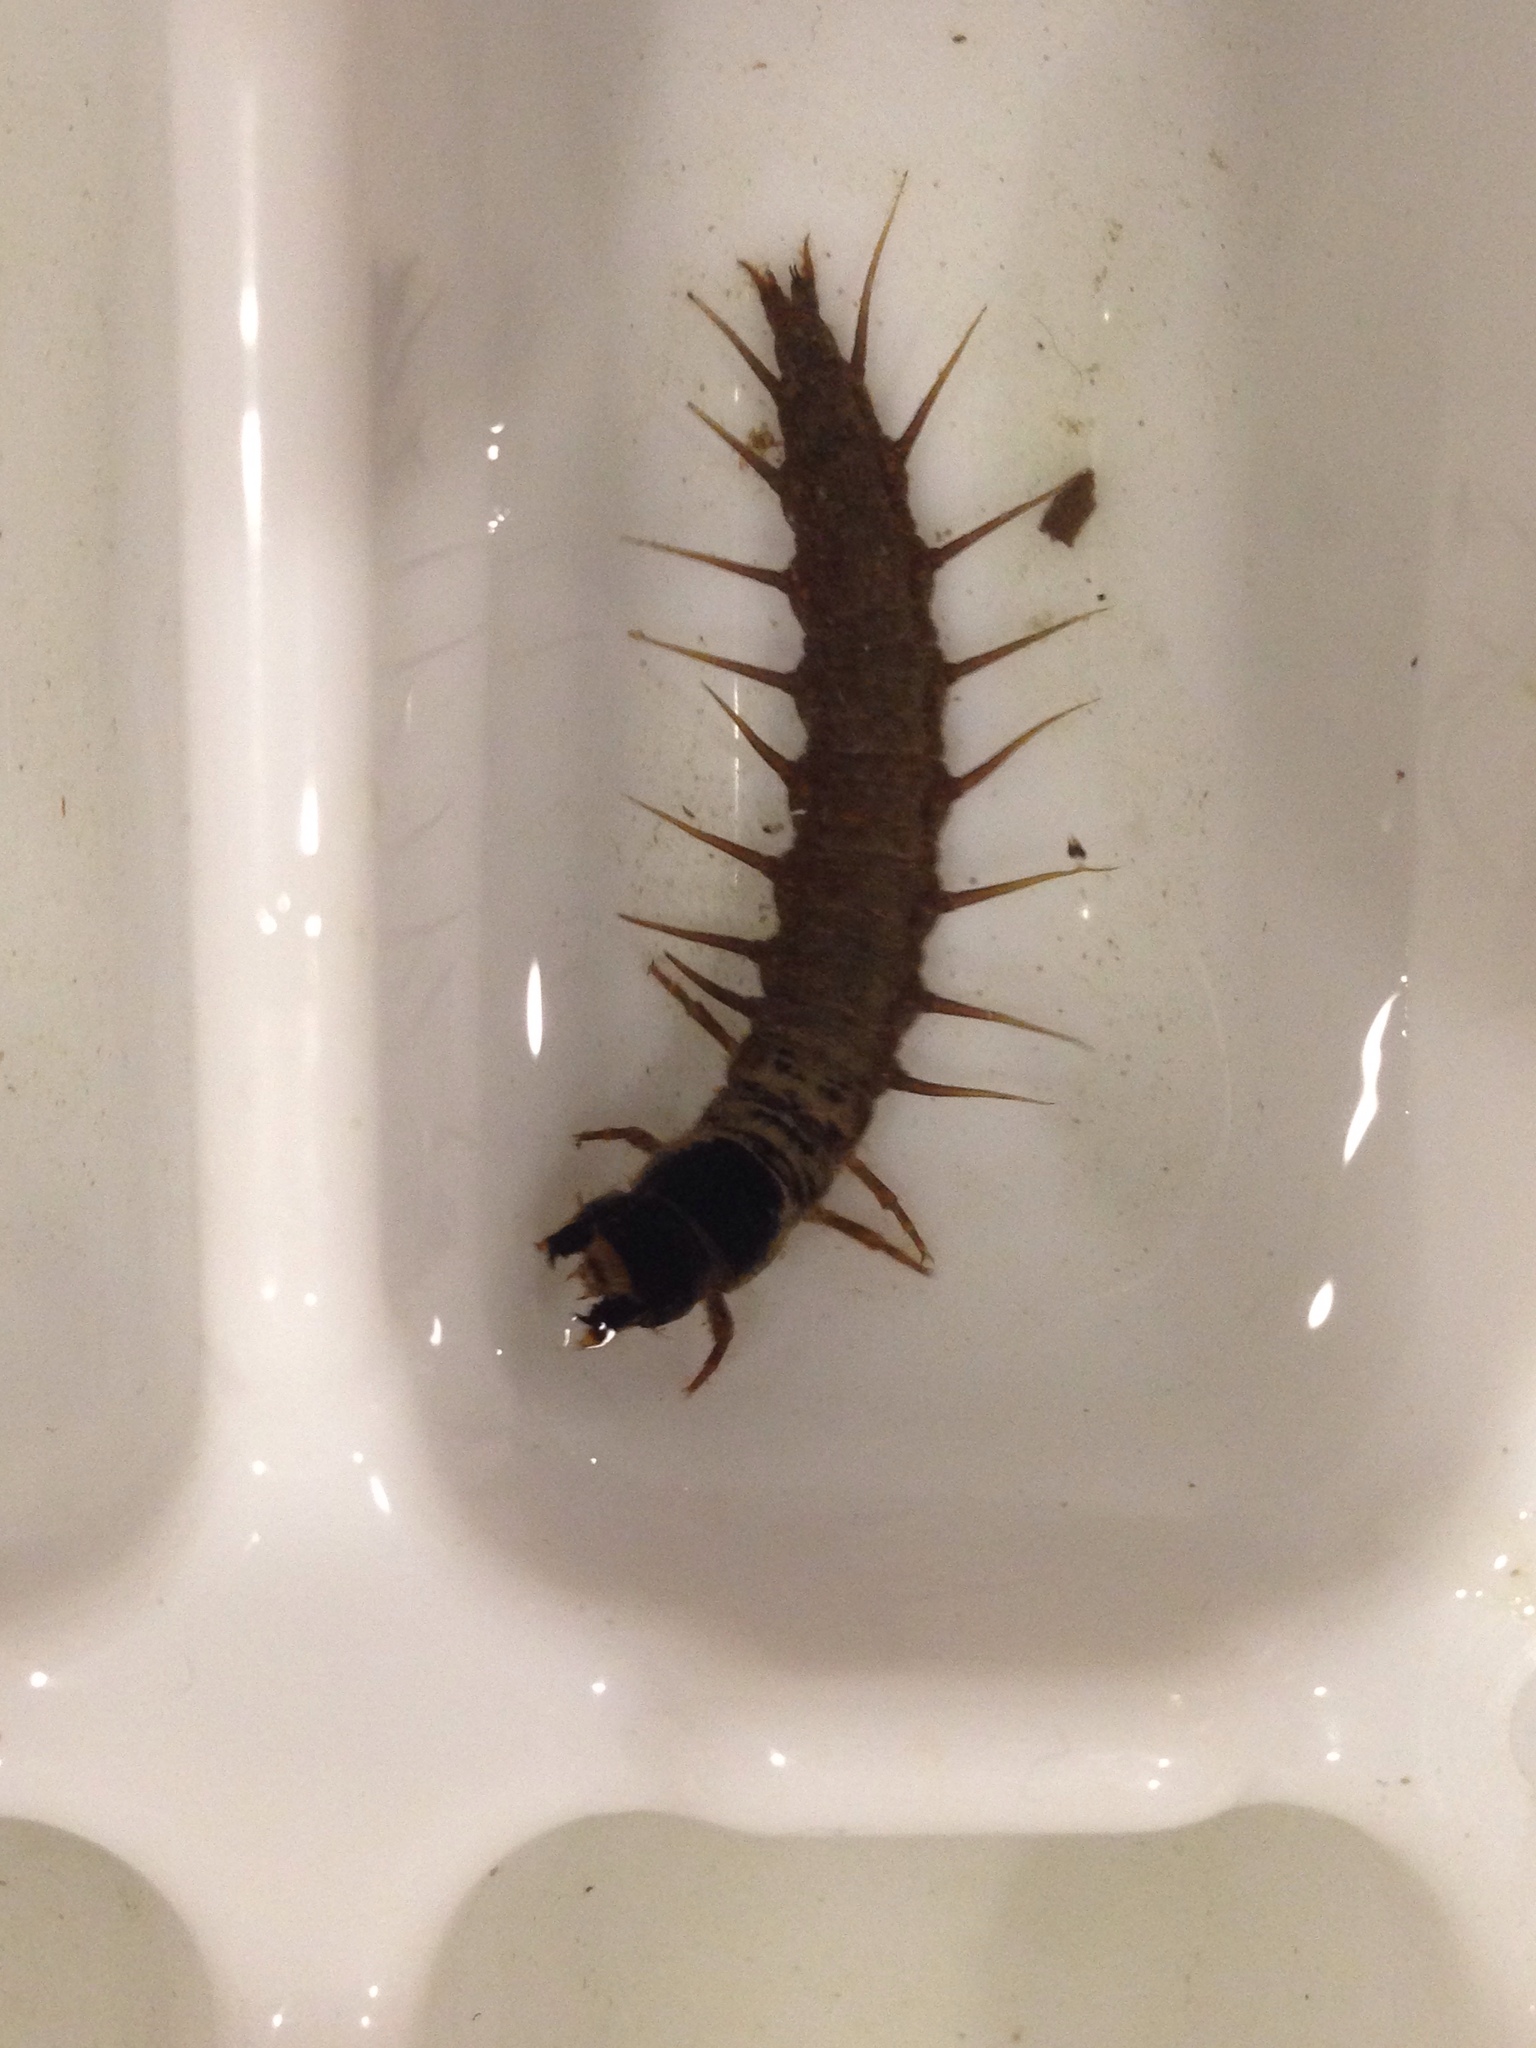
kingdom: Animalia
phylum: Arthropoda
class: Insecta
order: Megaloptera
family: Corydalidae
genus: Nigronia
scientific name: Nigronia serricornis
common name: Serrate dark fishfly
